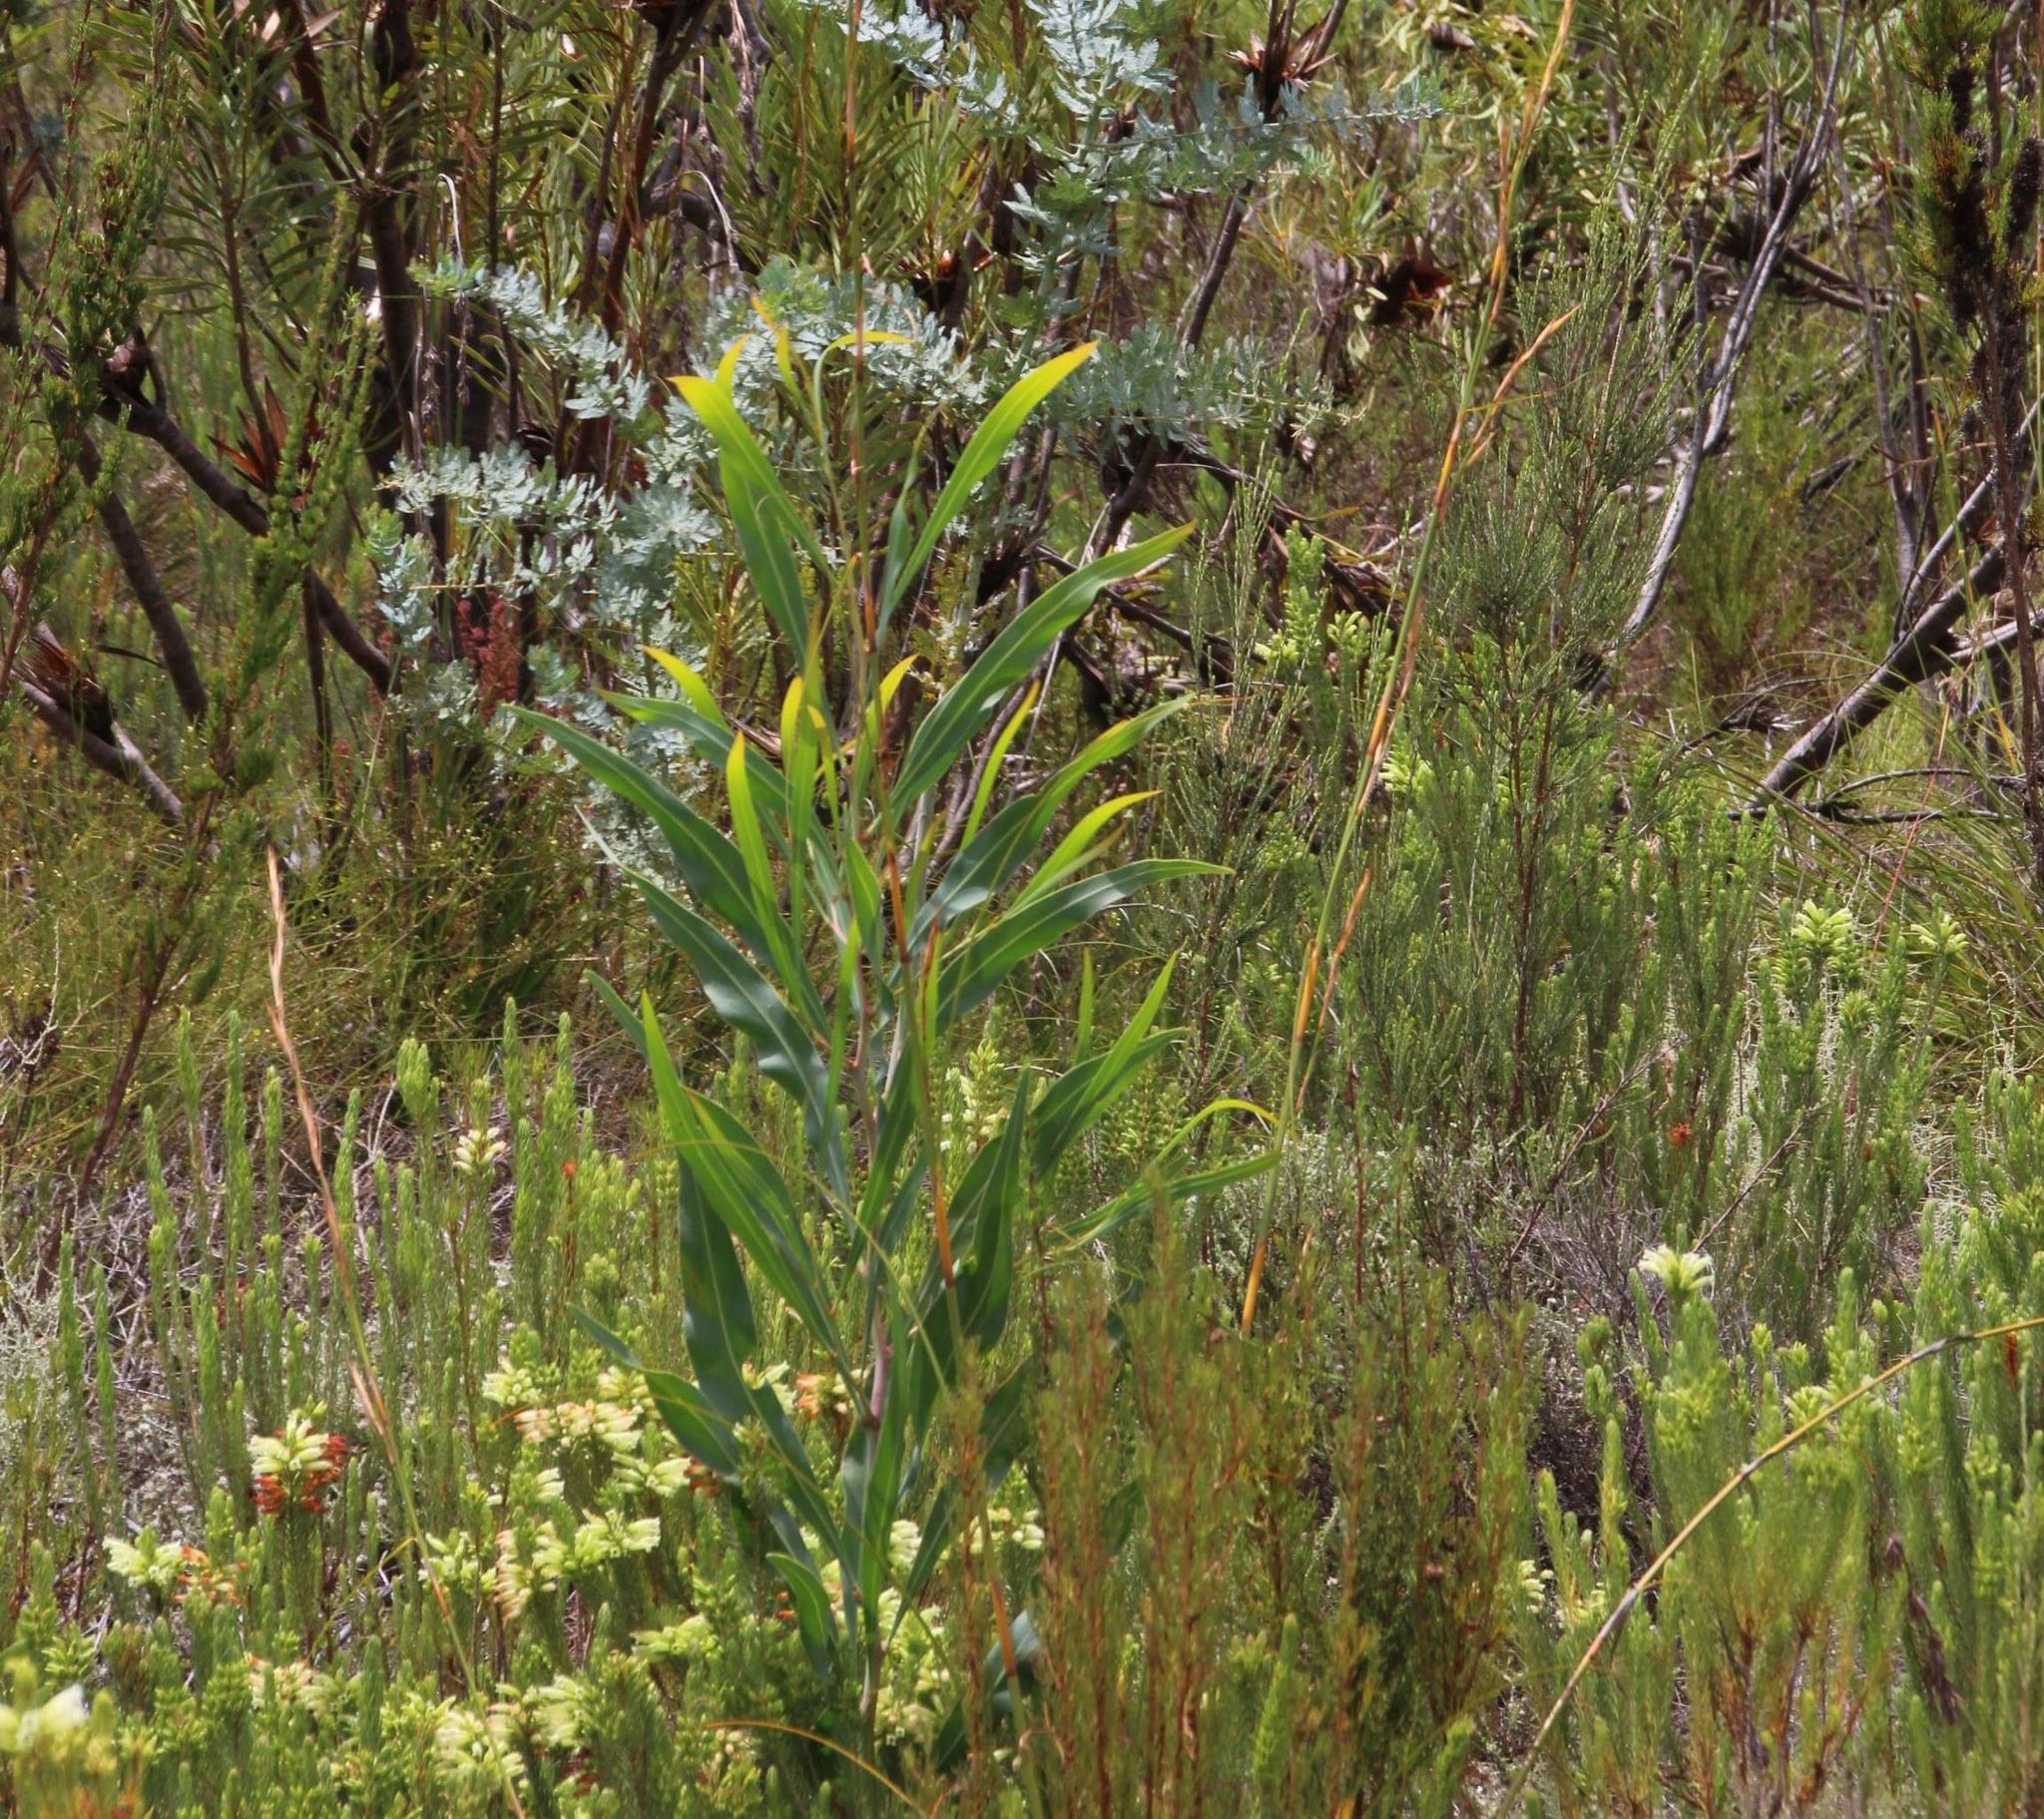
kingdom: Plantae
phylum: Tracheophyta
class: Magnoliopsida
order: Fabales
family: Fabaceae
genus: Acacia
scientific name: Acacia saligna
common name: Orange wattle
